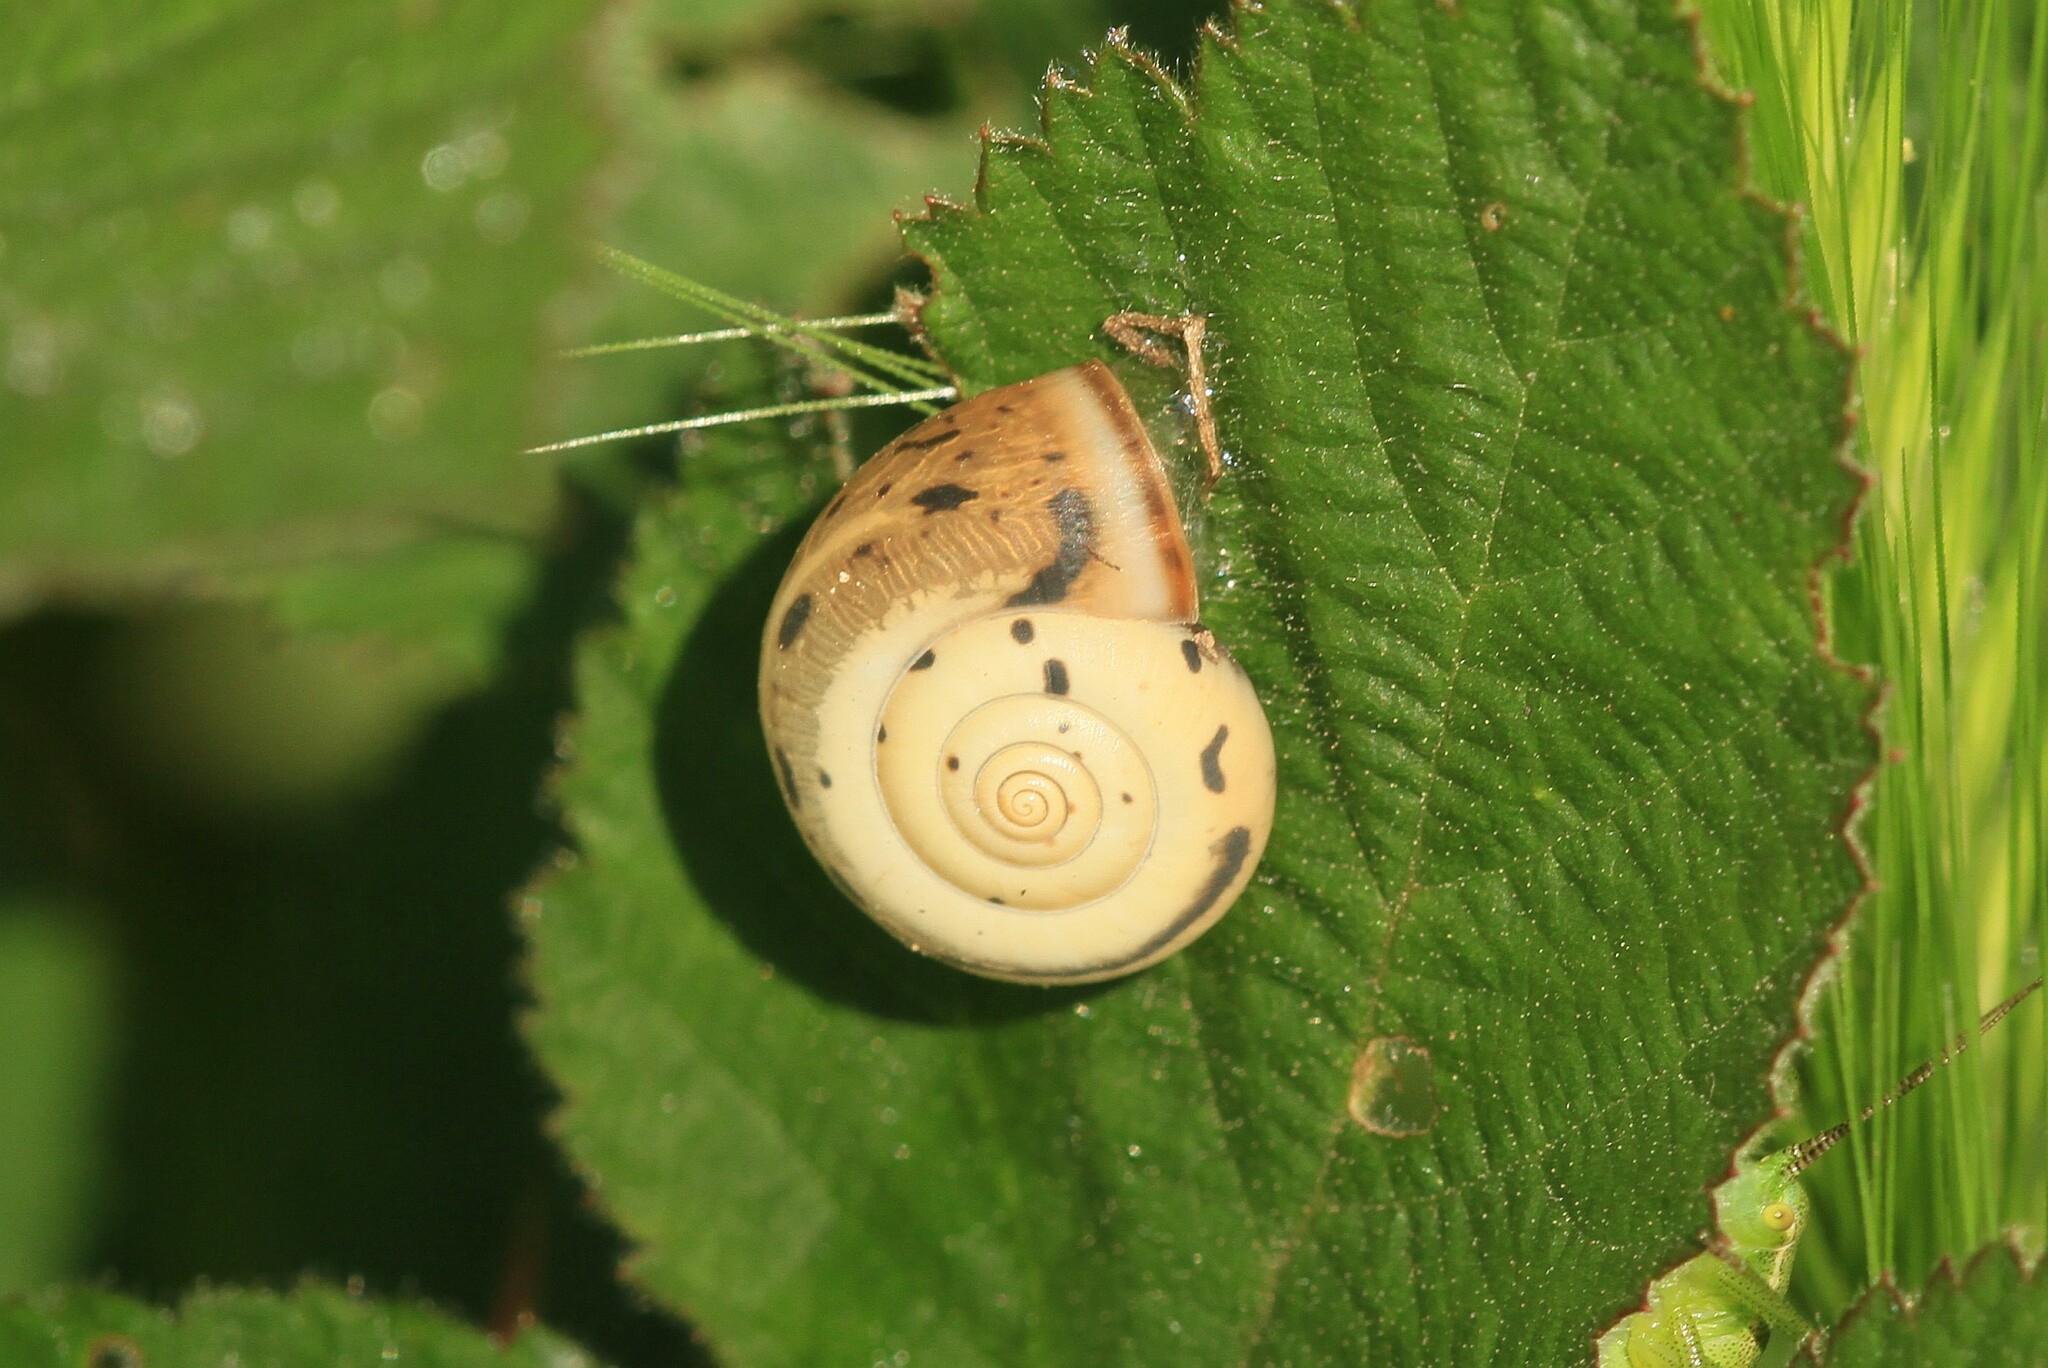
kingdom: Animalia
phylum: Mollusca
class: Gastropoda
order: Stylommatophora
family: Hygromiidae
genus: Monacha
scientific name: Monacha
